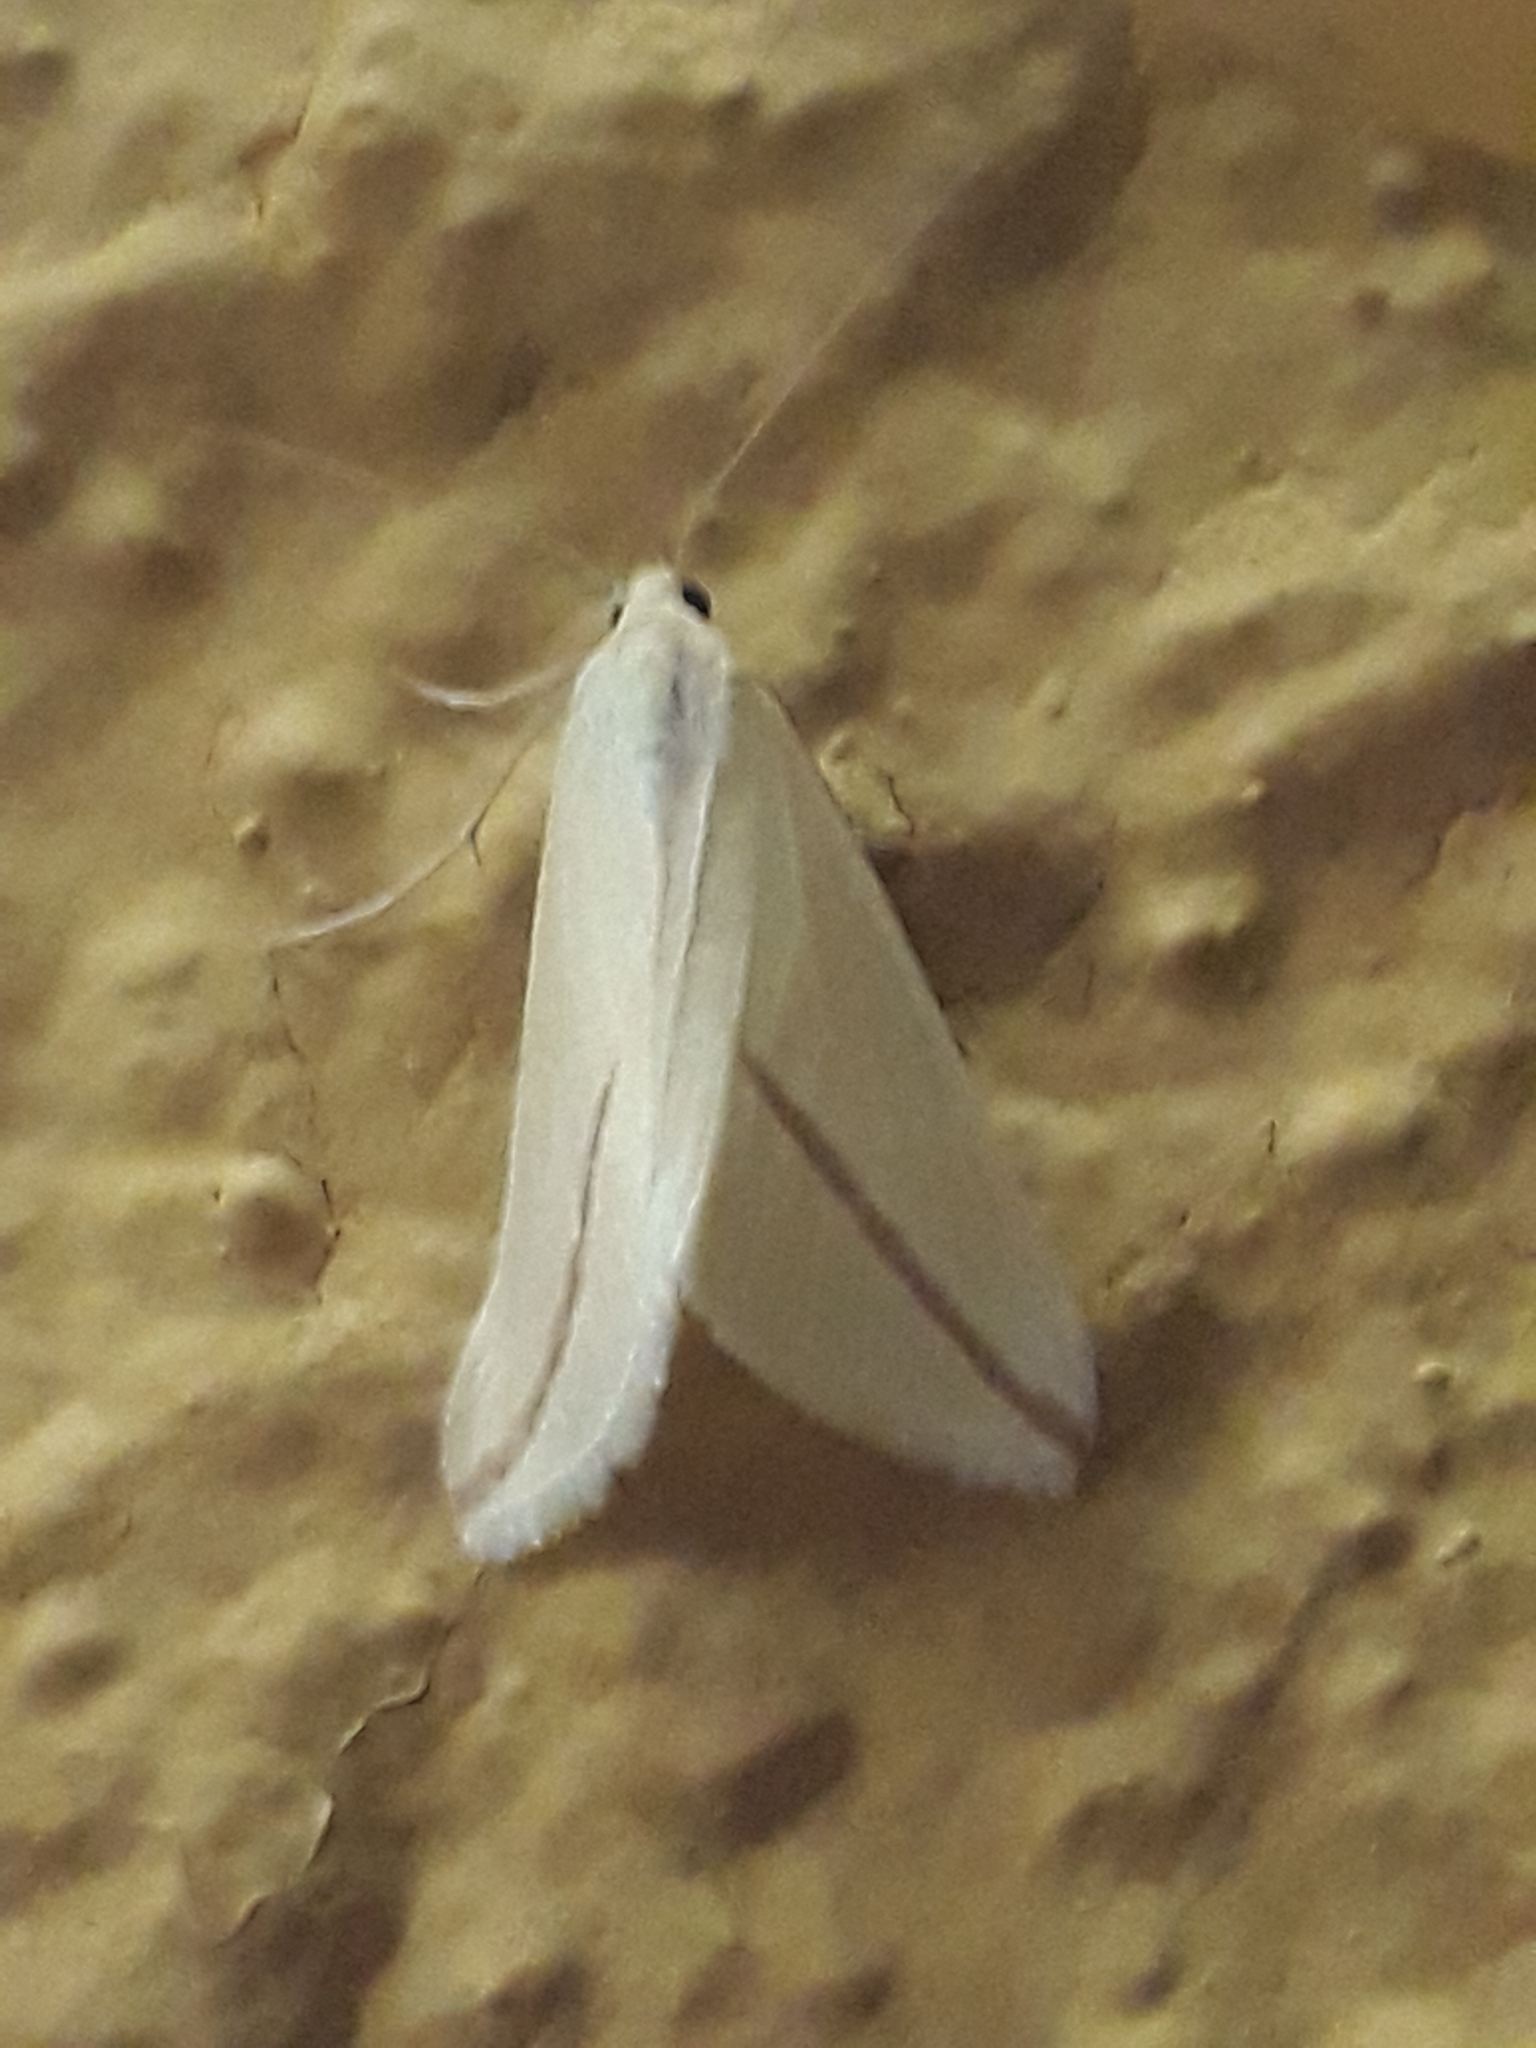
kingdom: Animalia
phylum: Arthropoda
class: Insecta
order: Lepidoptera
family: Geometridae
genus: Rhodometra
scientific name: Rhodometra sacraria
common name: Vestal
